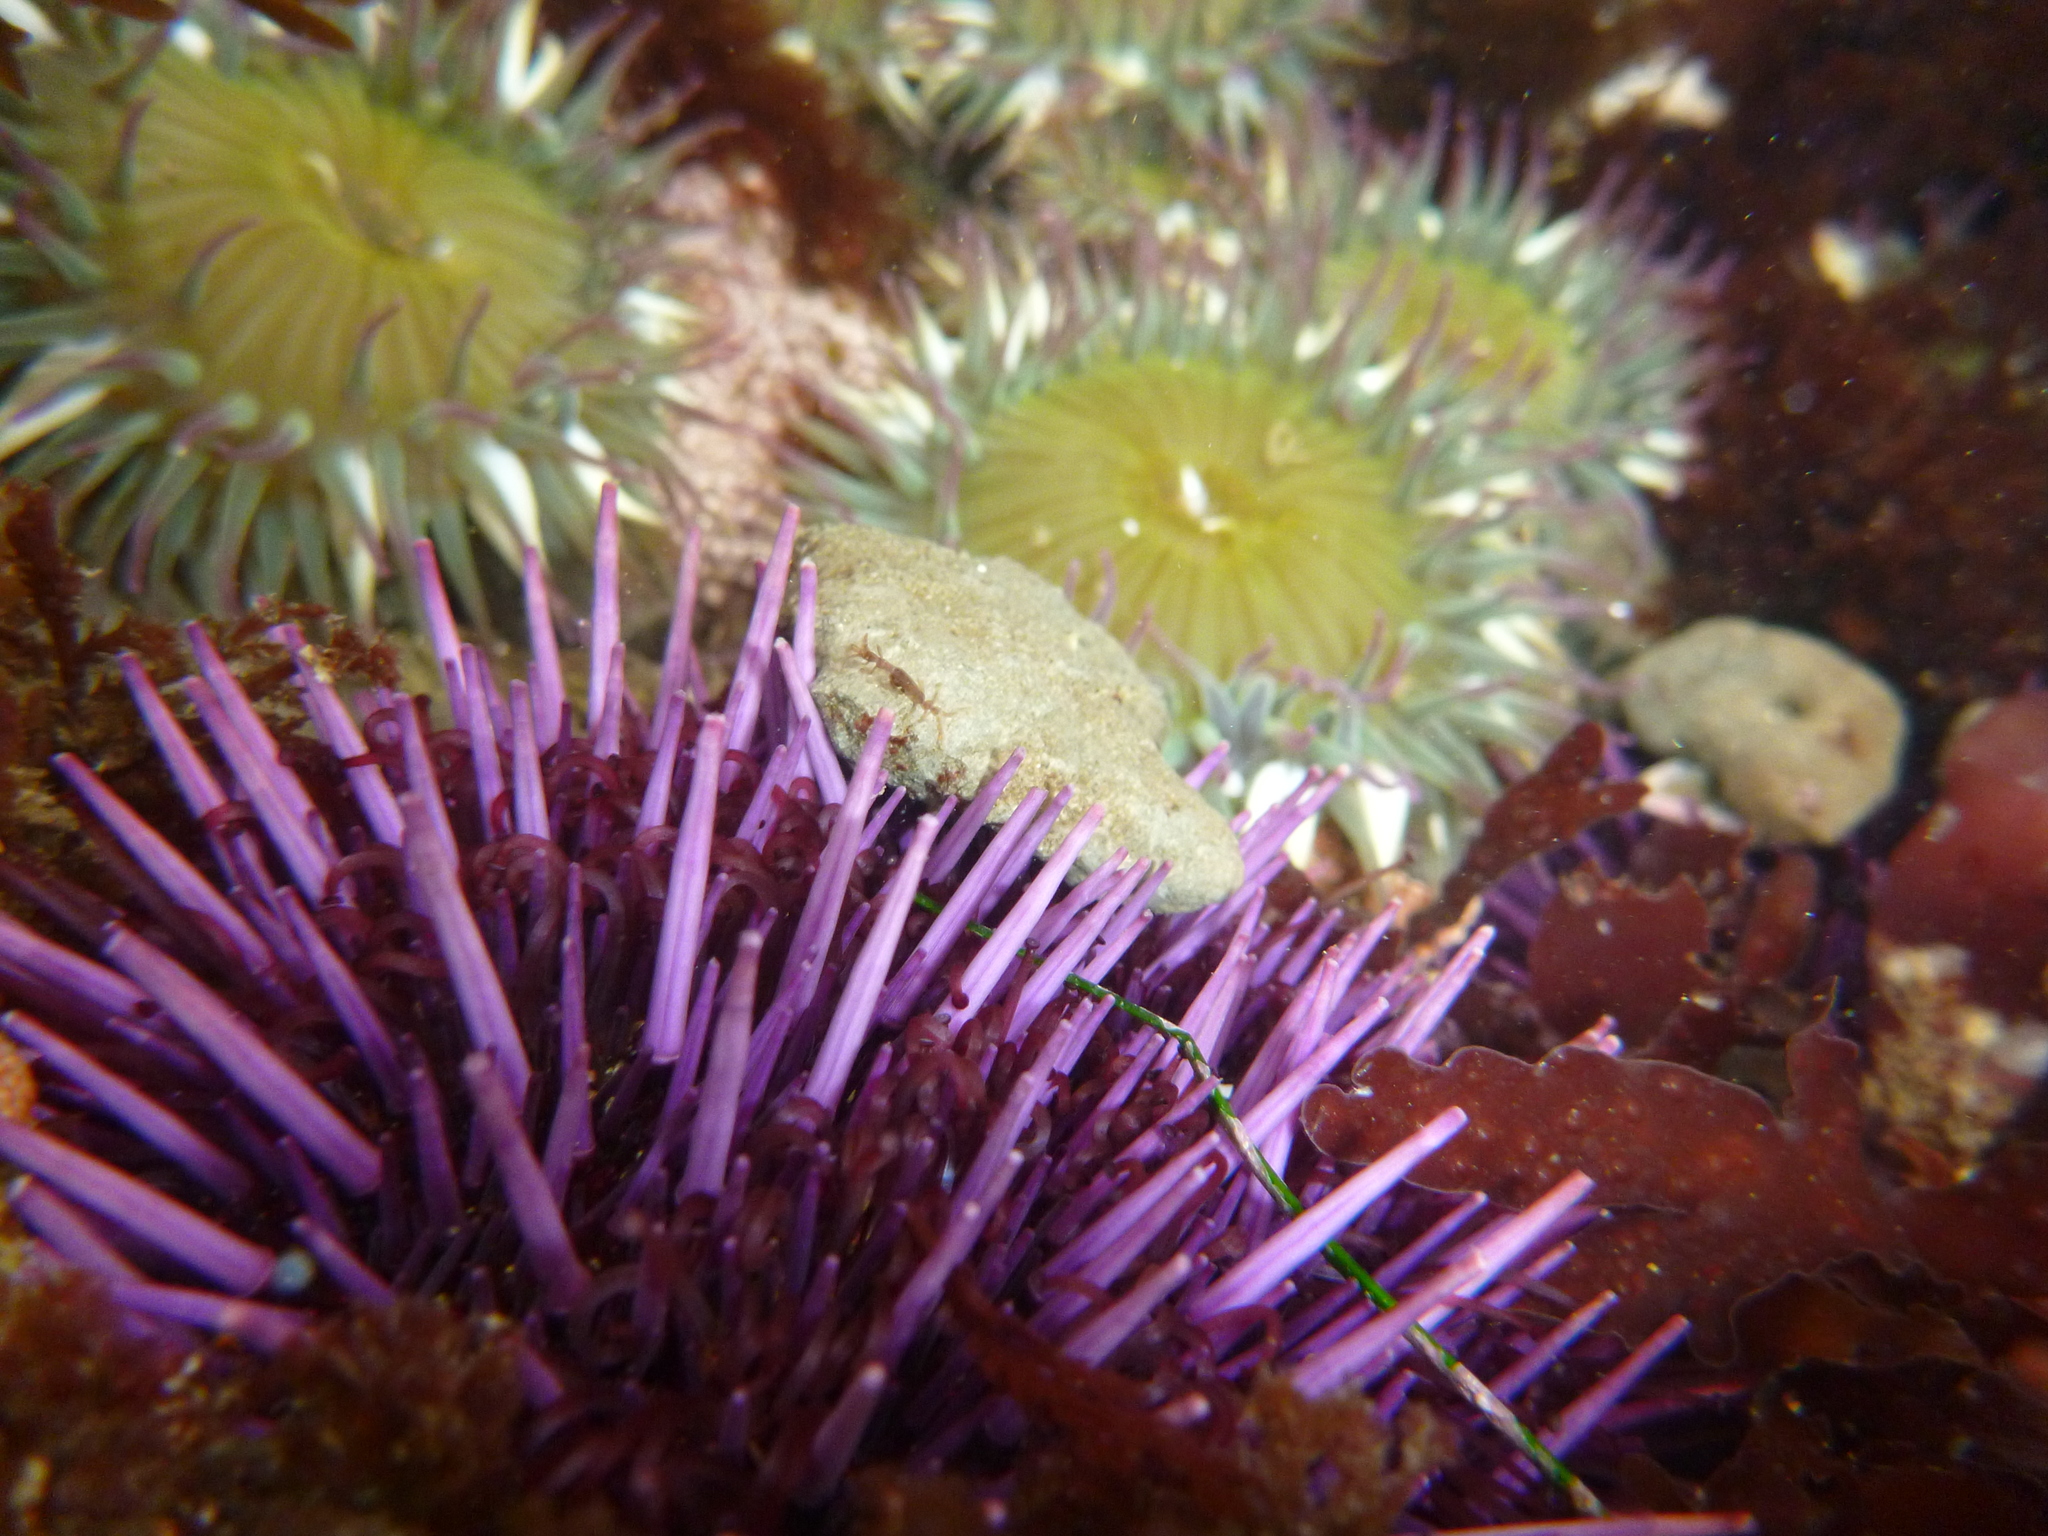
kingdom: Animalia
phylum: Echinodermata
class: Echinoidea
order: Camarodonta
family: Strongylocentrotidae
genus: Strongylocentrotus
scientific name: Strongylocentrotus purpuratus
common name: Purple sea urchin
